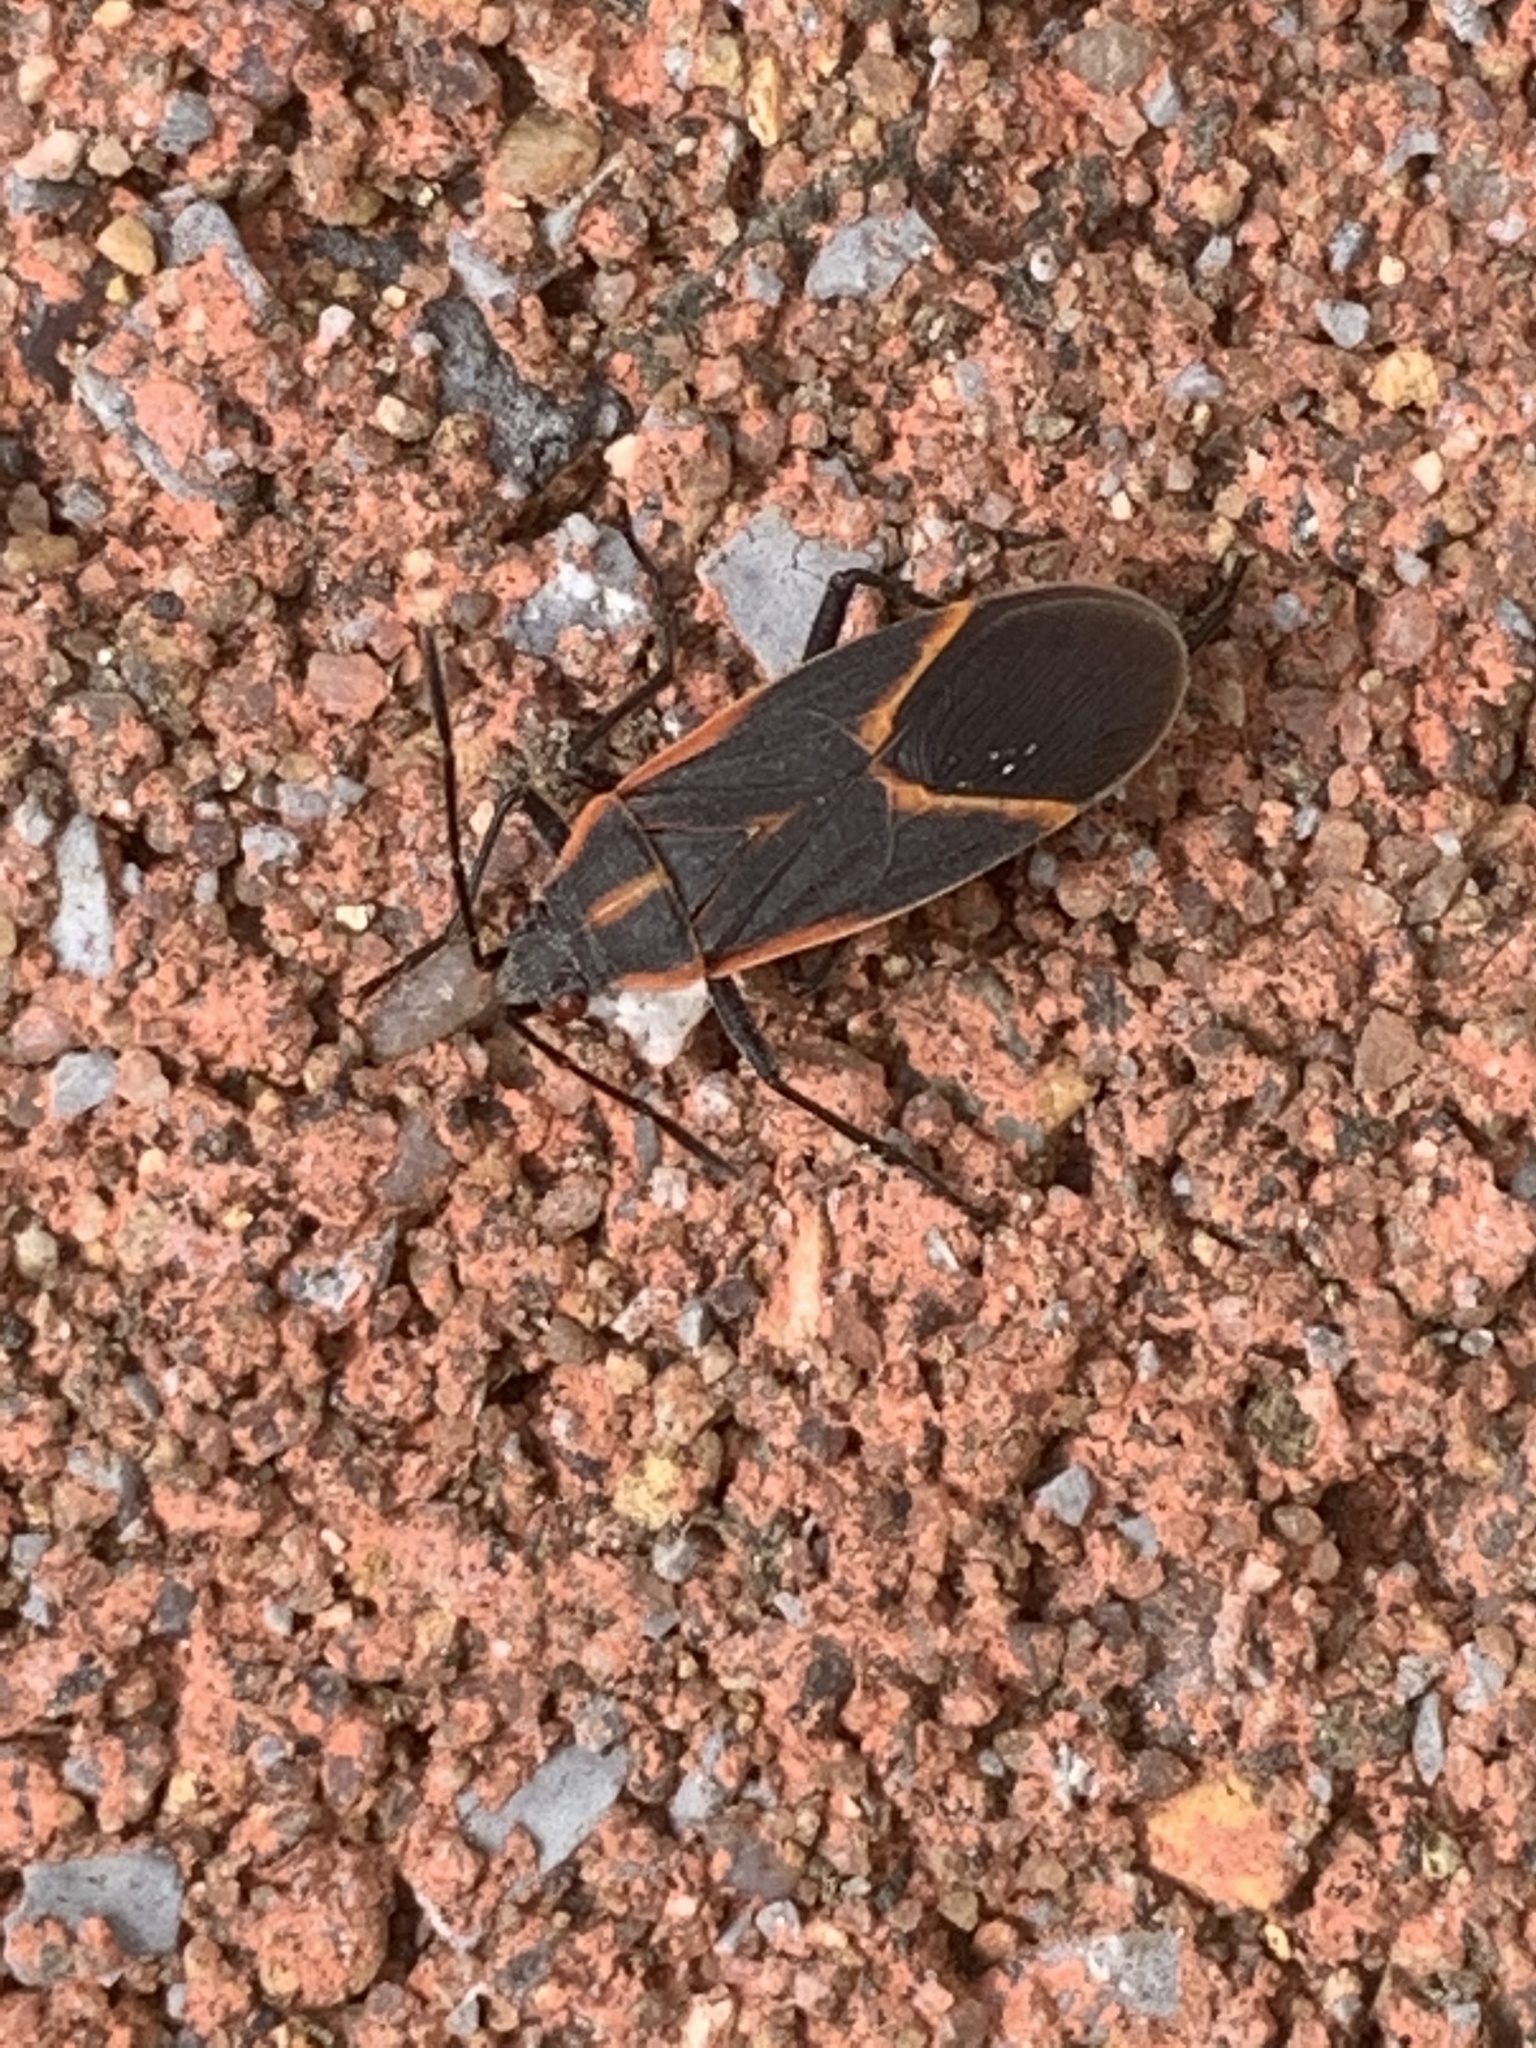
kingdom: Animalia
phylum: Arthropoda
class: Insecta
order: Hemiptera
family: Rhopalidae
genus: Boisea
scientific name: Boisea trivittata
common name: Boxelder bug
